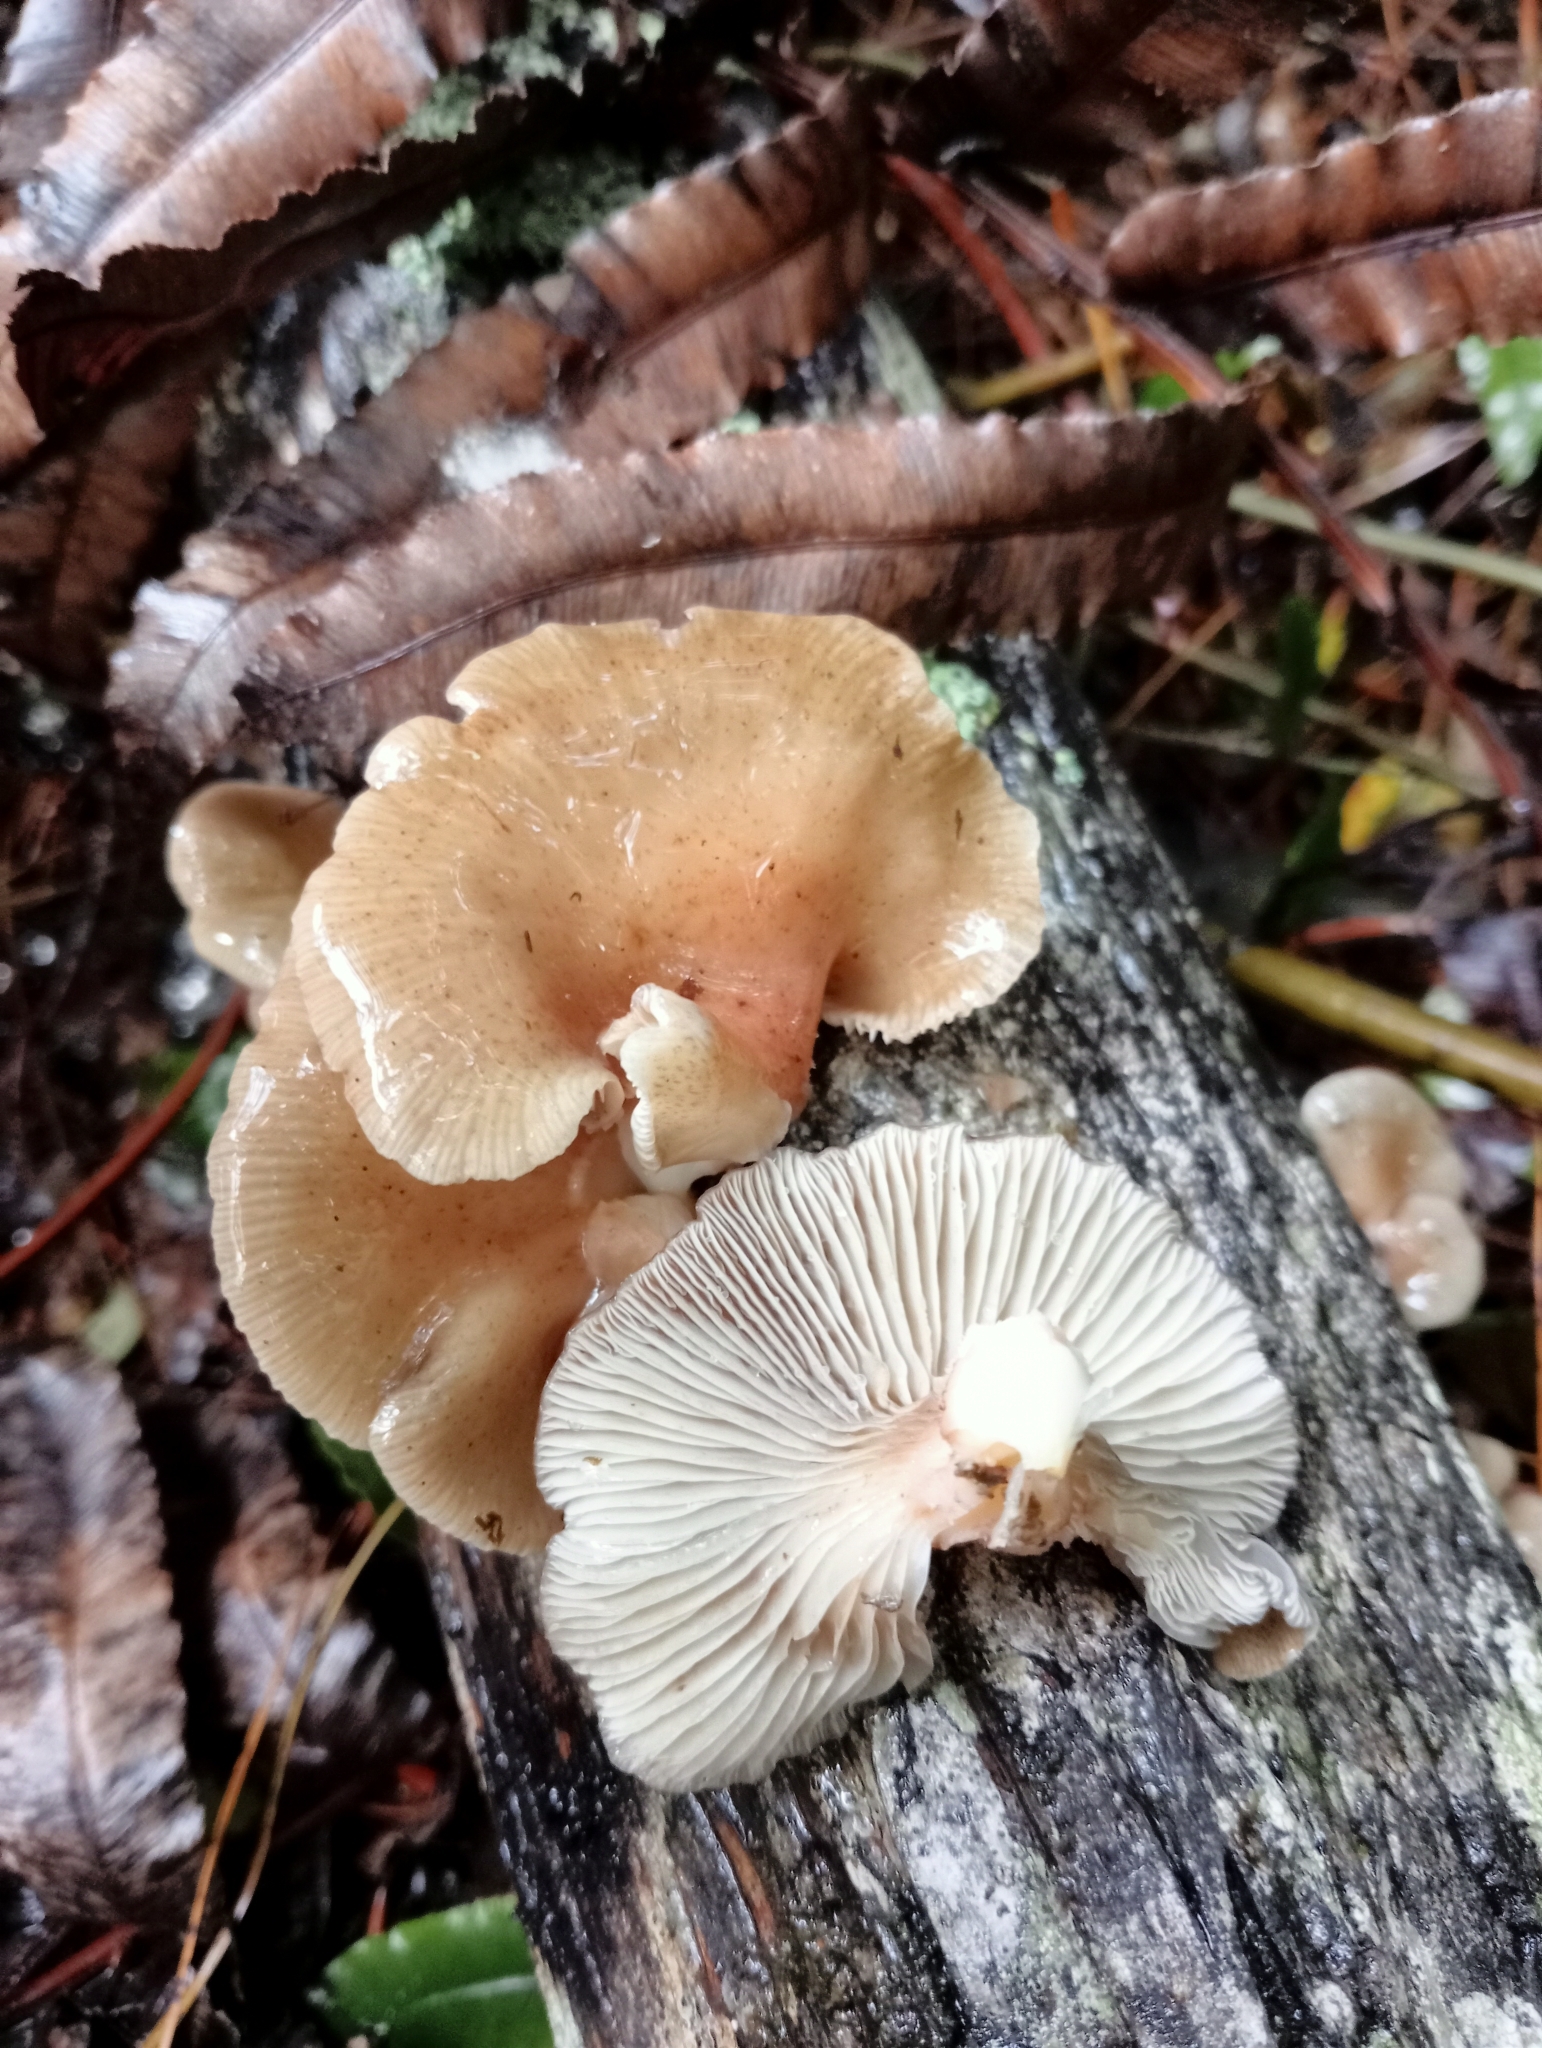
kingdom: Fungi
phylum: Basidiomycota
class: Agaricomycetes
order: Agaricales
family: Mycenaceae
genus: Panellus
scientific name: Panellus longinquus
